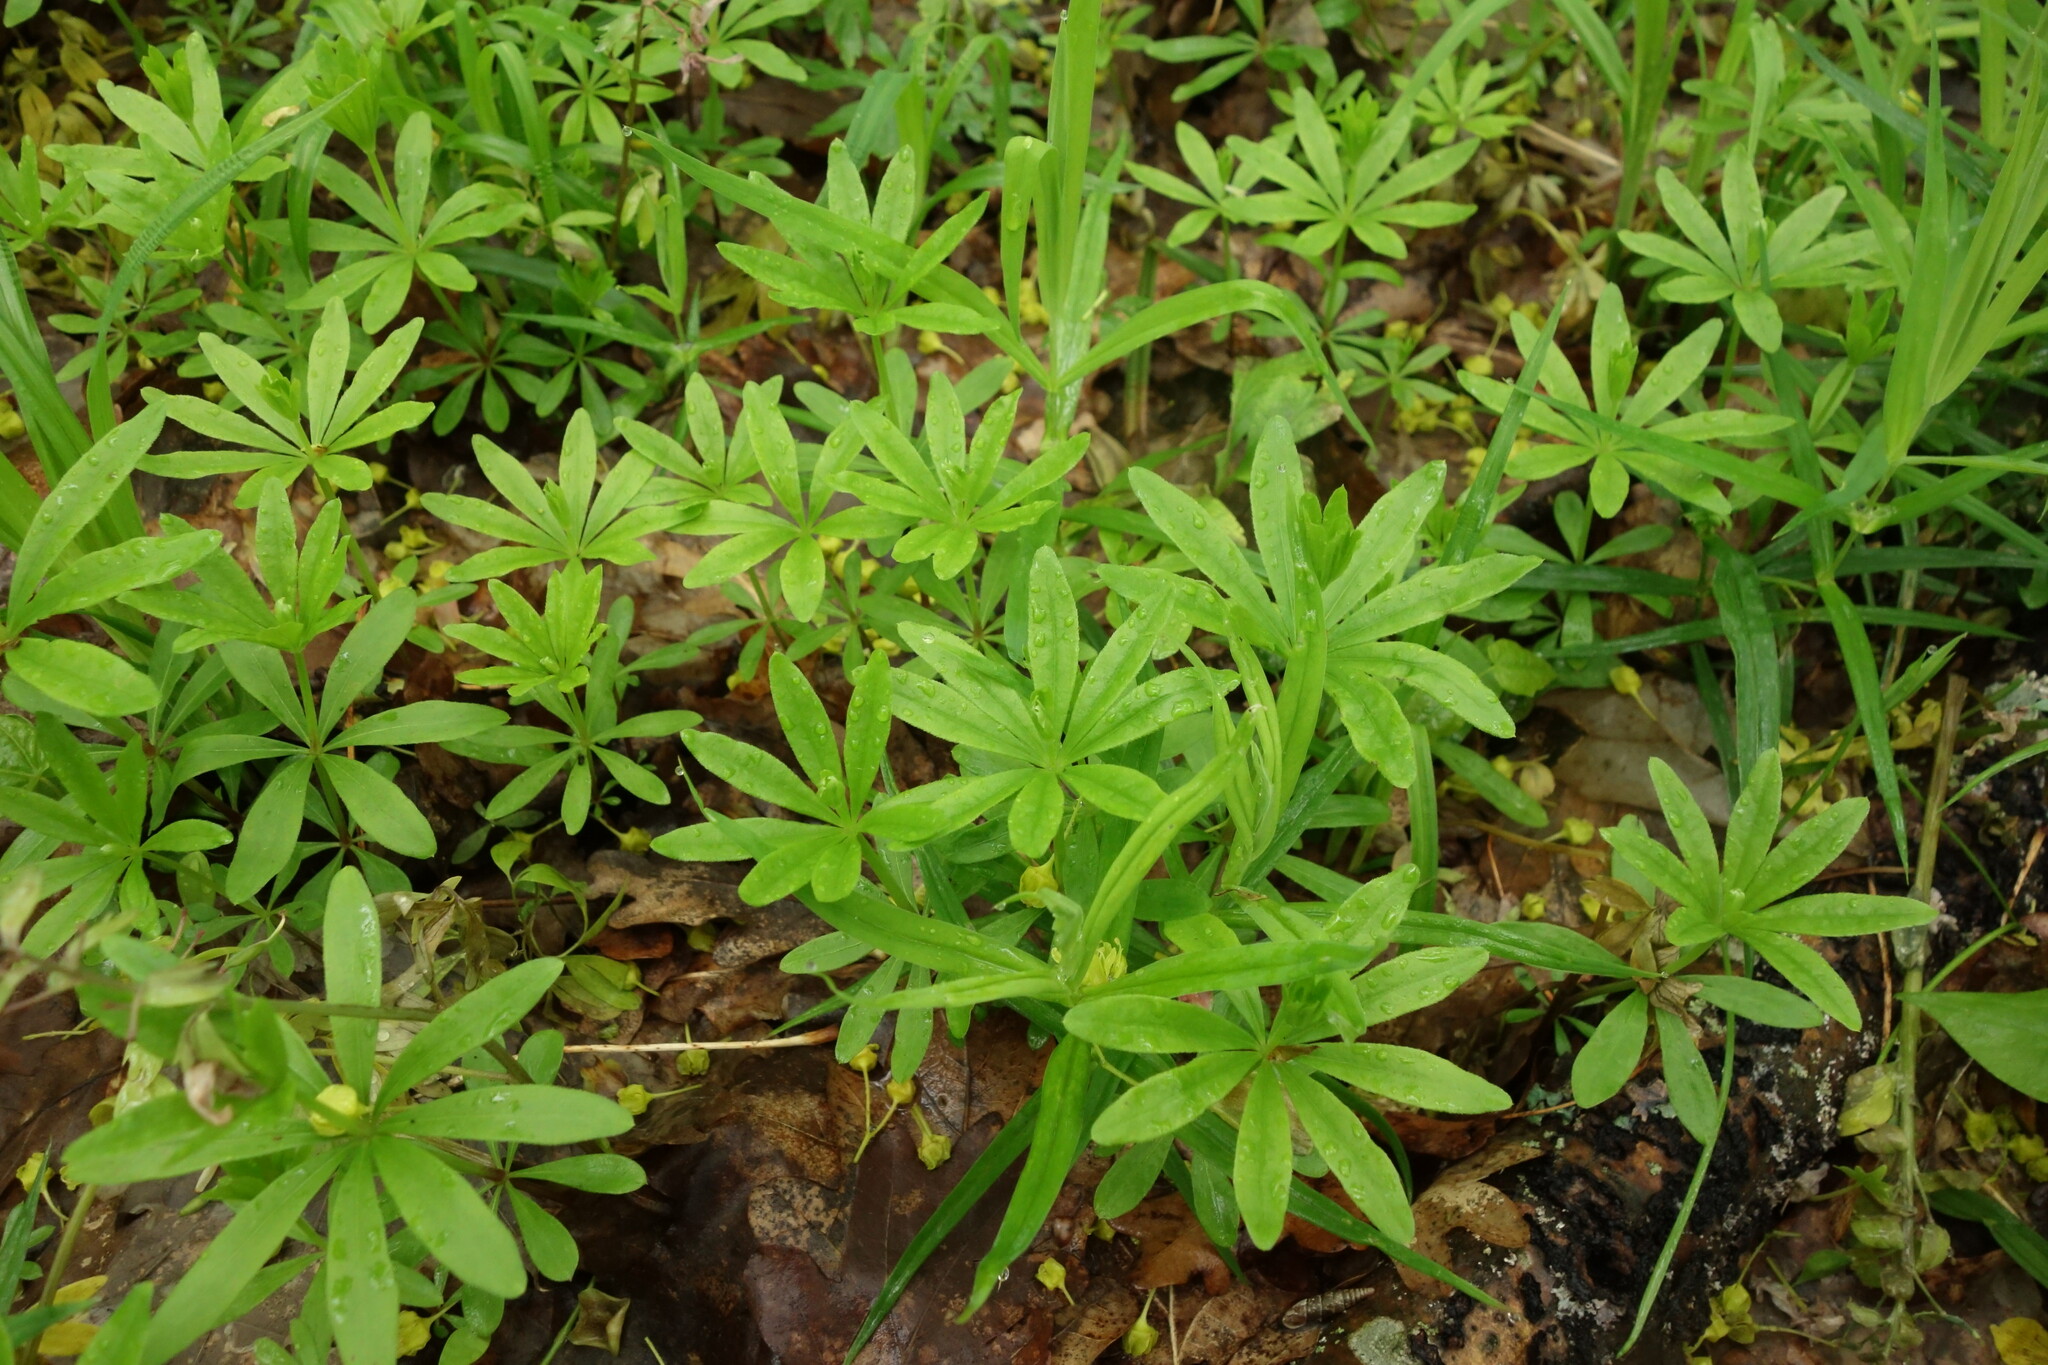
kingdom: Plantae
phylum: Tracheophyta
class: Magnoliopsida
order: Gentianales
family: Rubiaceae
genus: Galium
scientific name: Galium odoratum
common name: Sweet woodruff
